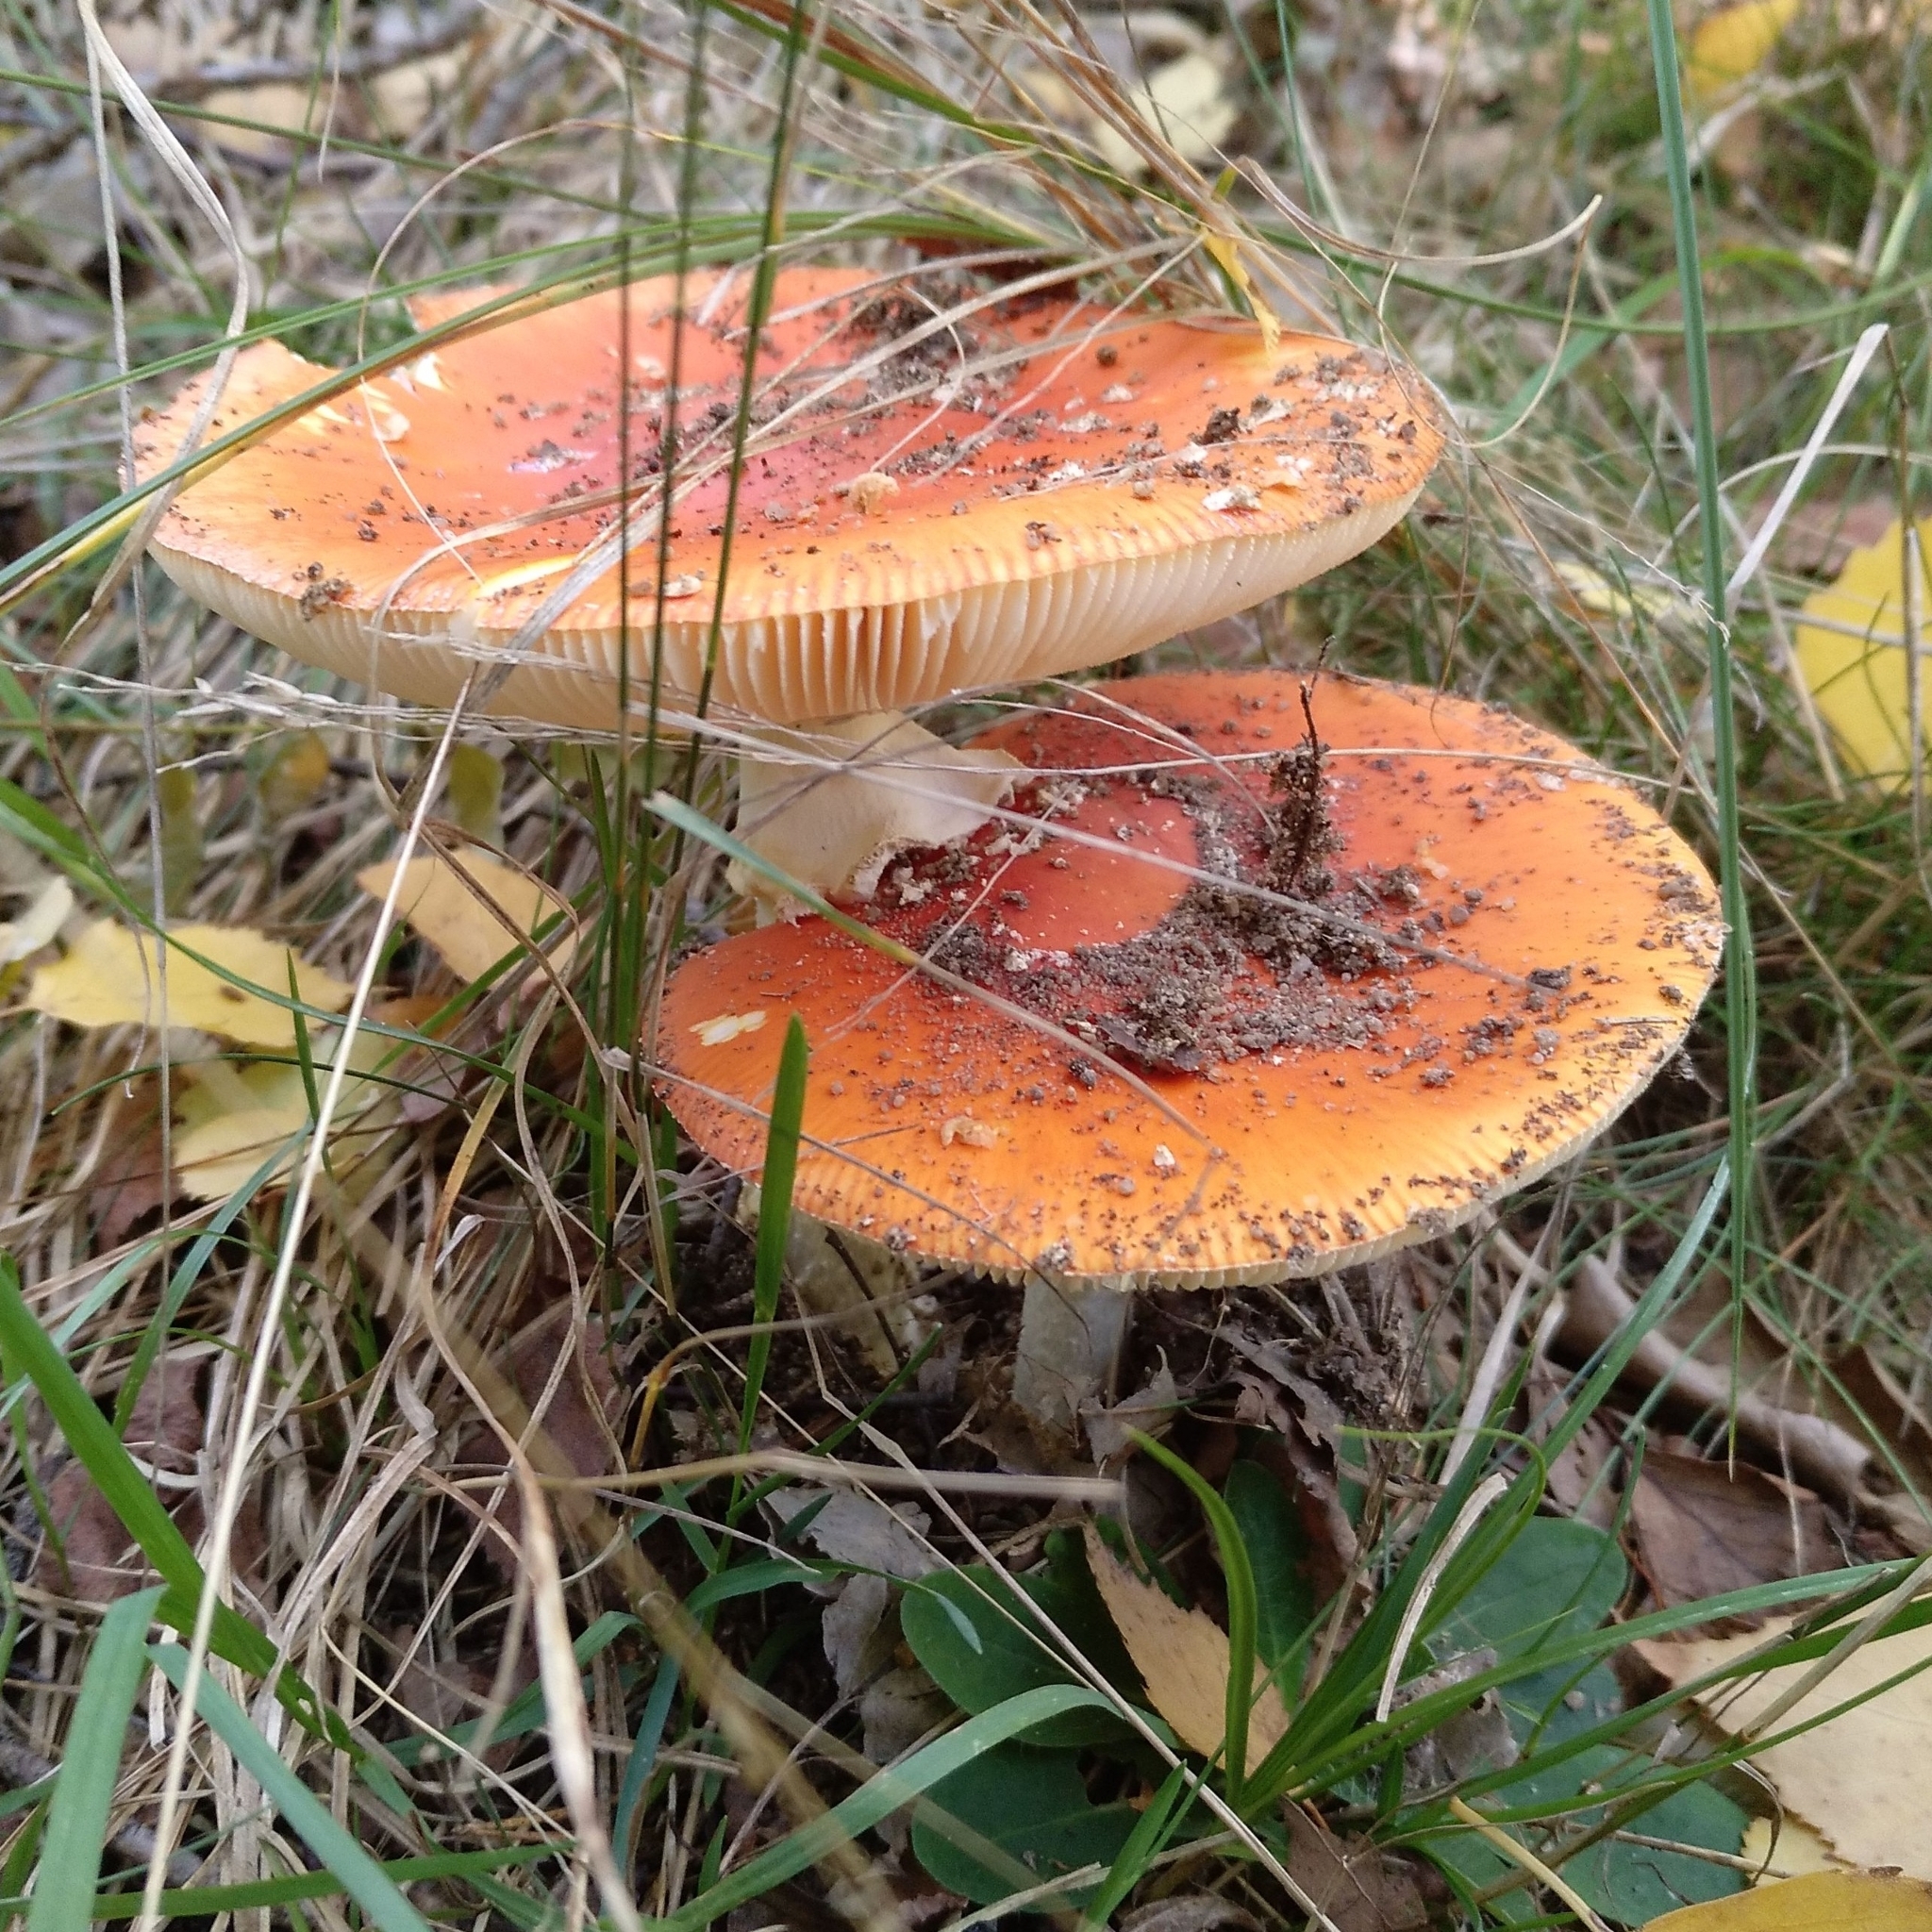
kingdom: Fungi
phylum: Basidiomycota
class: Agaricomycetes
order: Agaricales
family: Amanitaceae
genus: Amanita
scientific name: Amanita muscaria
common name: Fly agaric
